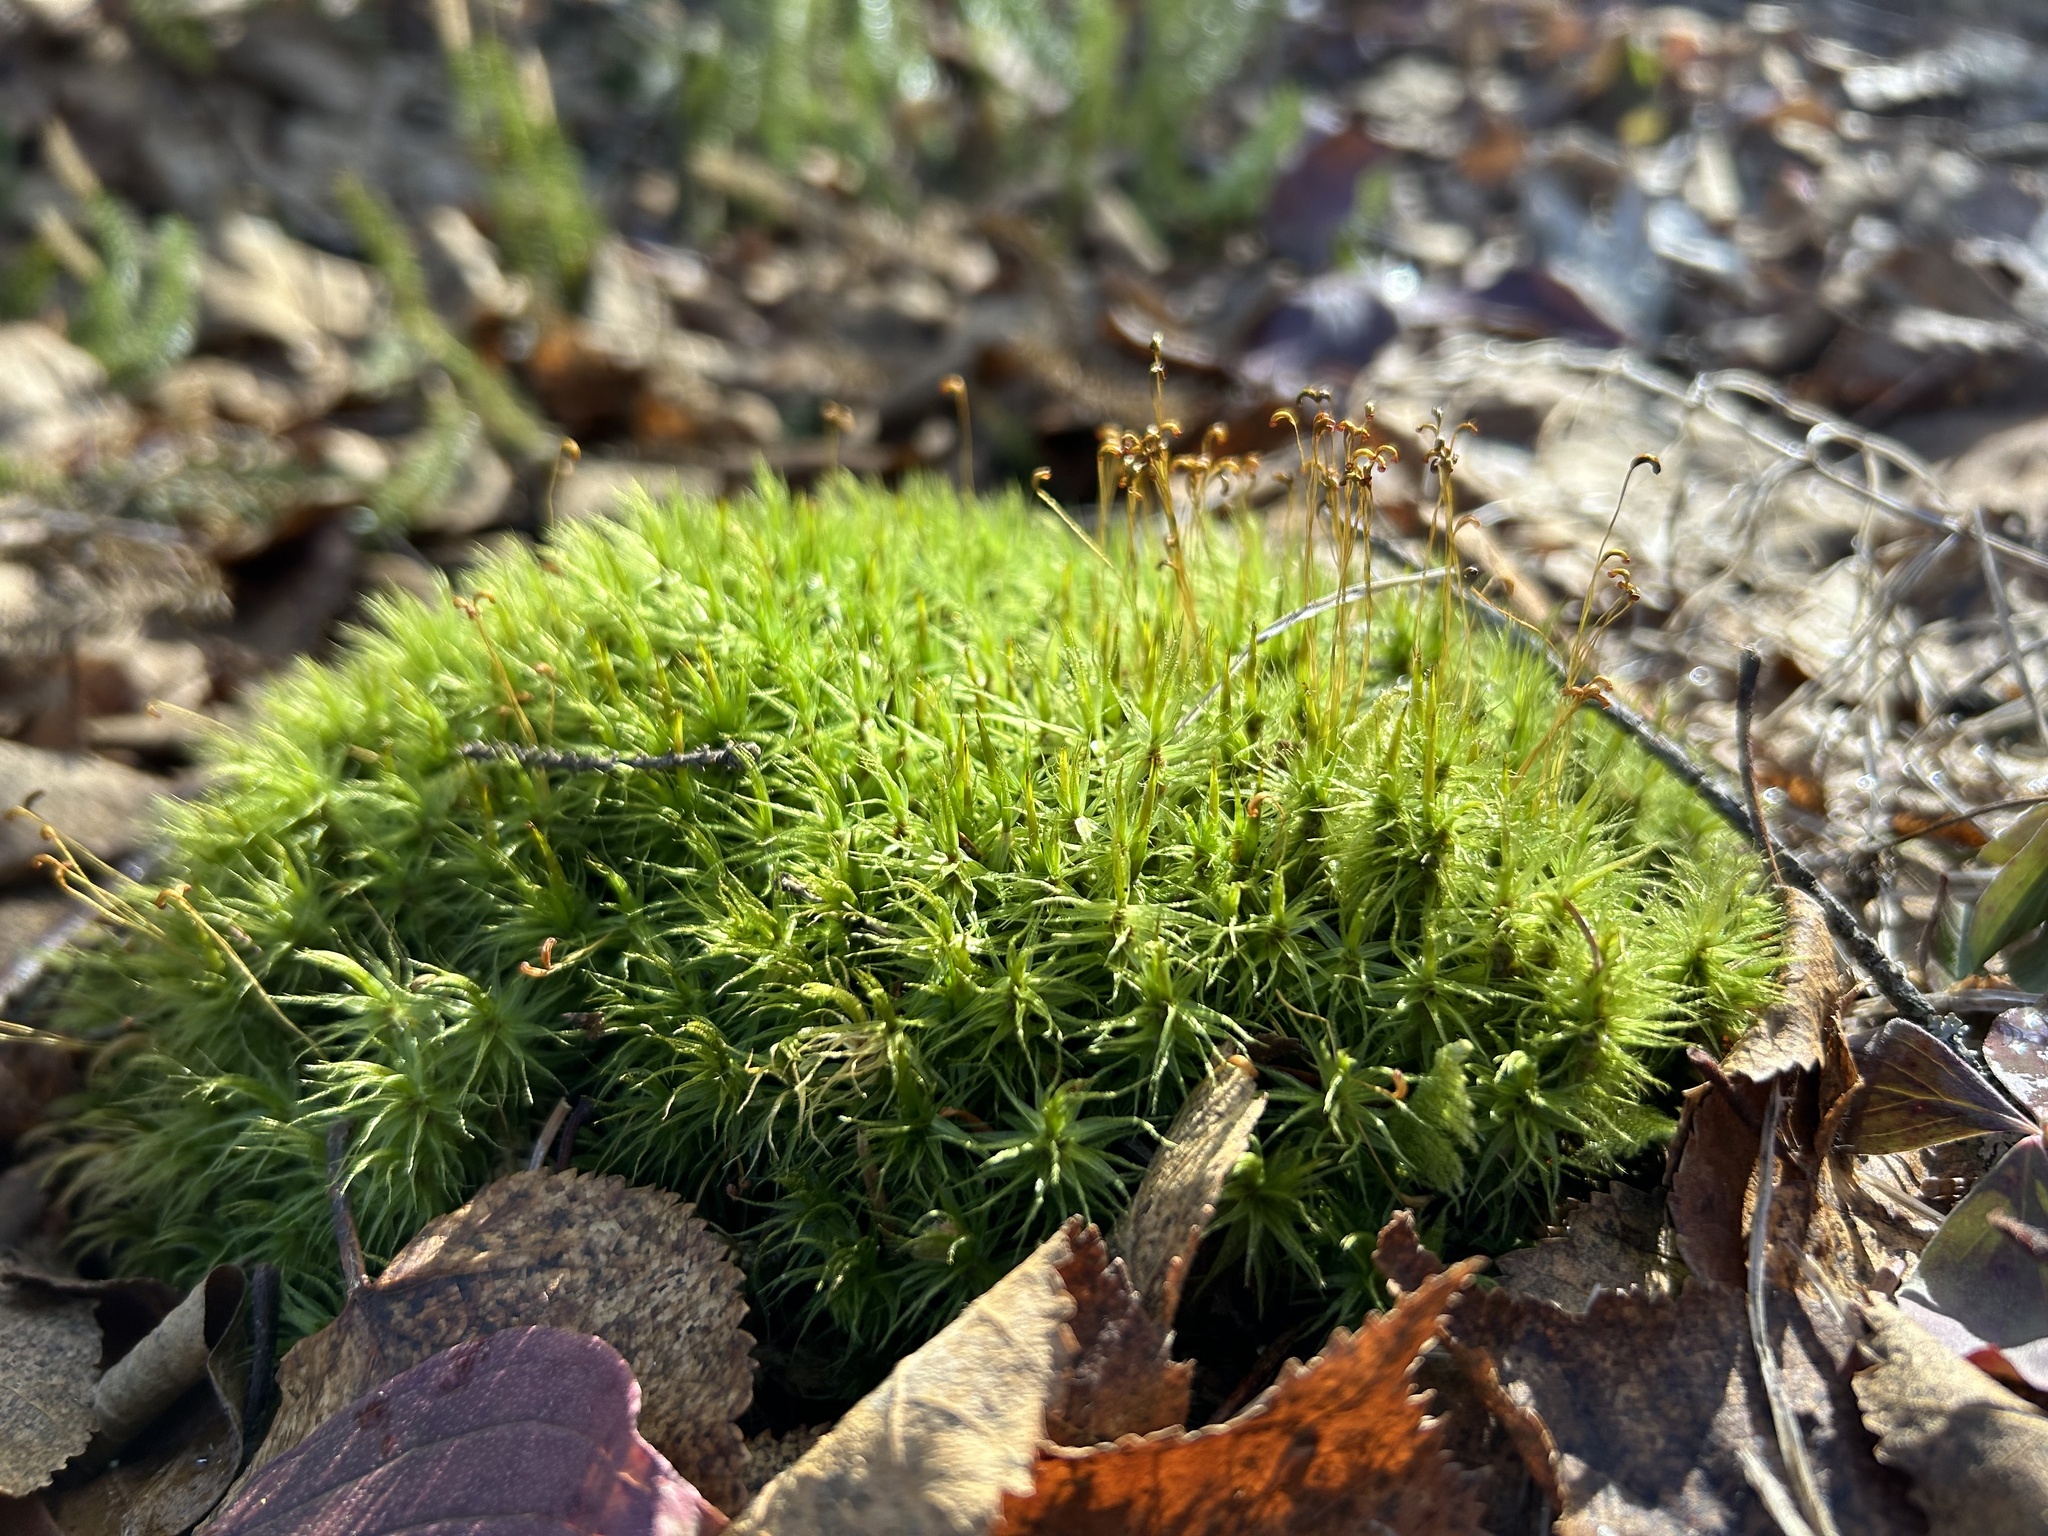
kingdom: Plantae
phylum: Bryophyta
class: Bryopsida
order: Dicranales
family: Dicranaceae
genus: Dicranum
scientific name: Dicranum polysetum
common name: Rugose fork-moss
